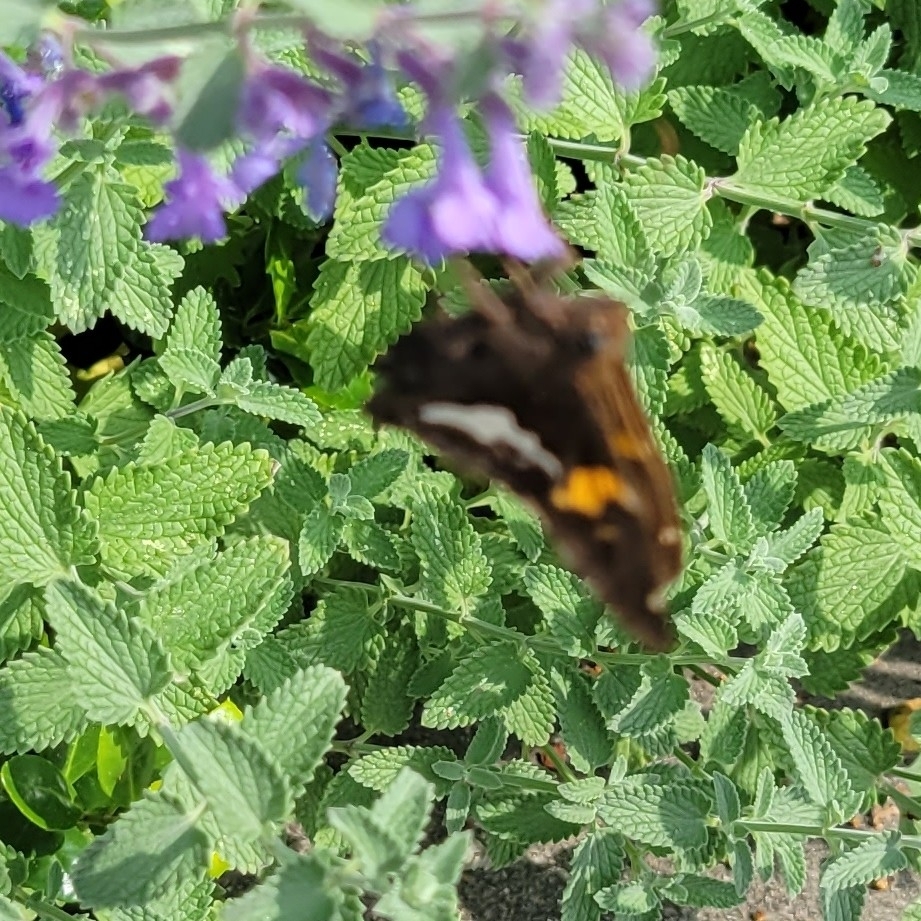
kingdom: Animalia
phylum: Arthropoda
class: Insecta
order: Lepidoptera
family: Hesperiidae
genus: Epargyreus
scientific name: Epargyreus clarus
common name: Silver-spotted skipper
